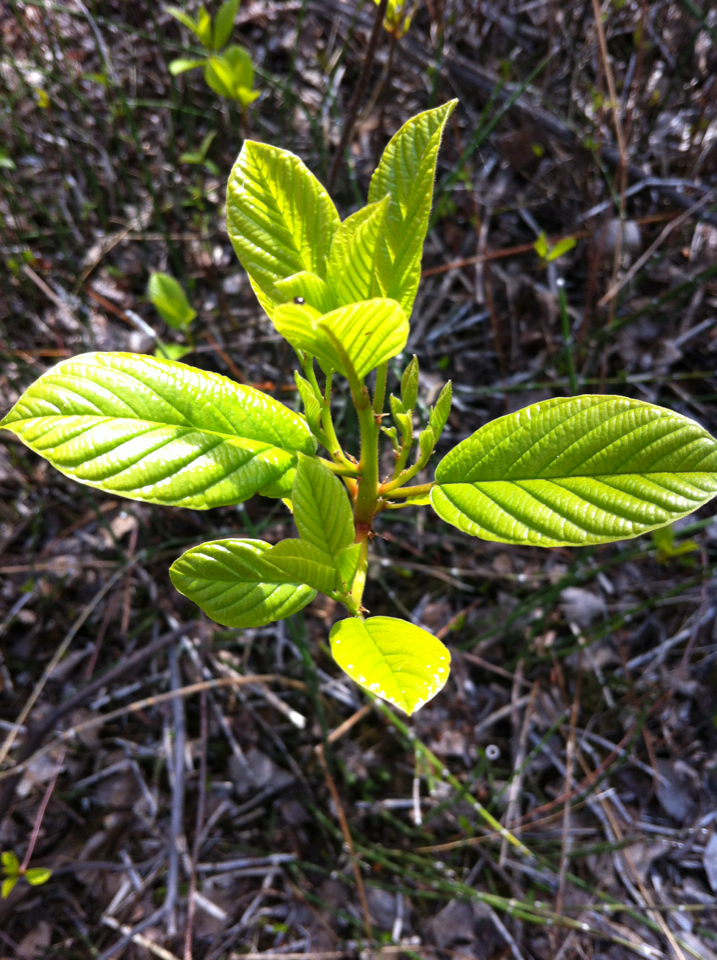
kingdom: Plantae
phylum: Tracheophyta
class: Magnoliopsida
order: Rosales
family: Rhamnaceae
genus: Frangula
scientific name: Frangula alnus
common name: Alder buckthorn
